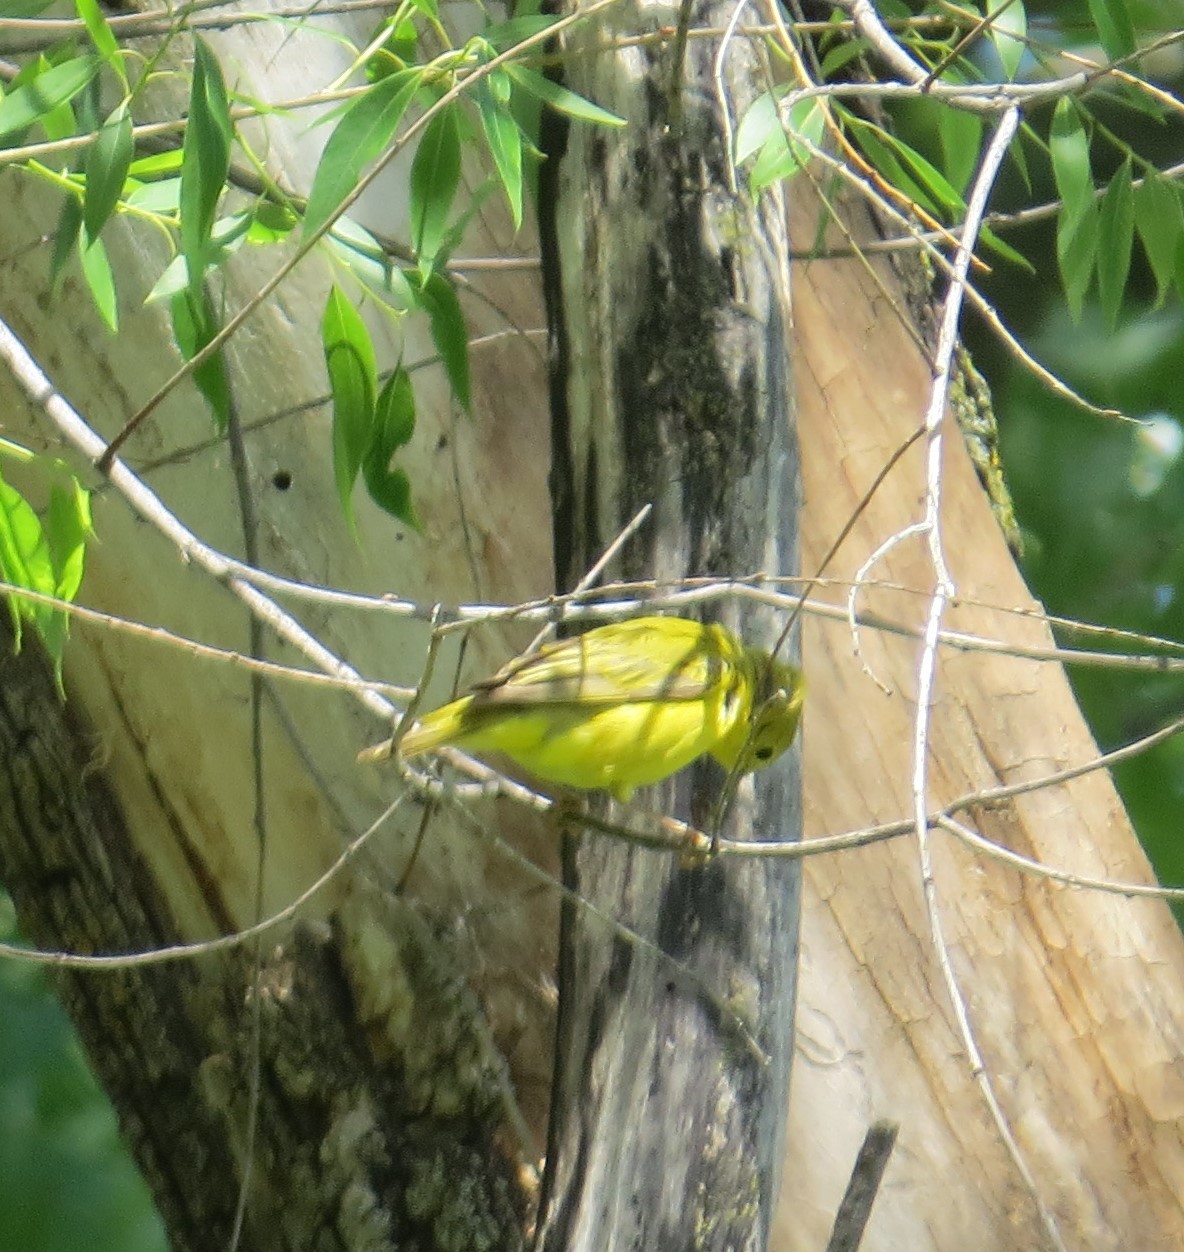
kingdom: Animalia
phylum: Chordata
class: Aves
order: Passeriformes
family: Parulidae
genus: Setophaga
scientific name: Setophaga petechia
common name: Yellow warbler
